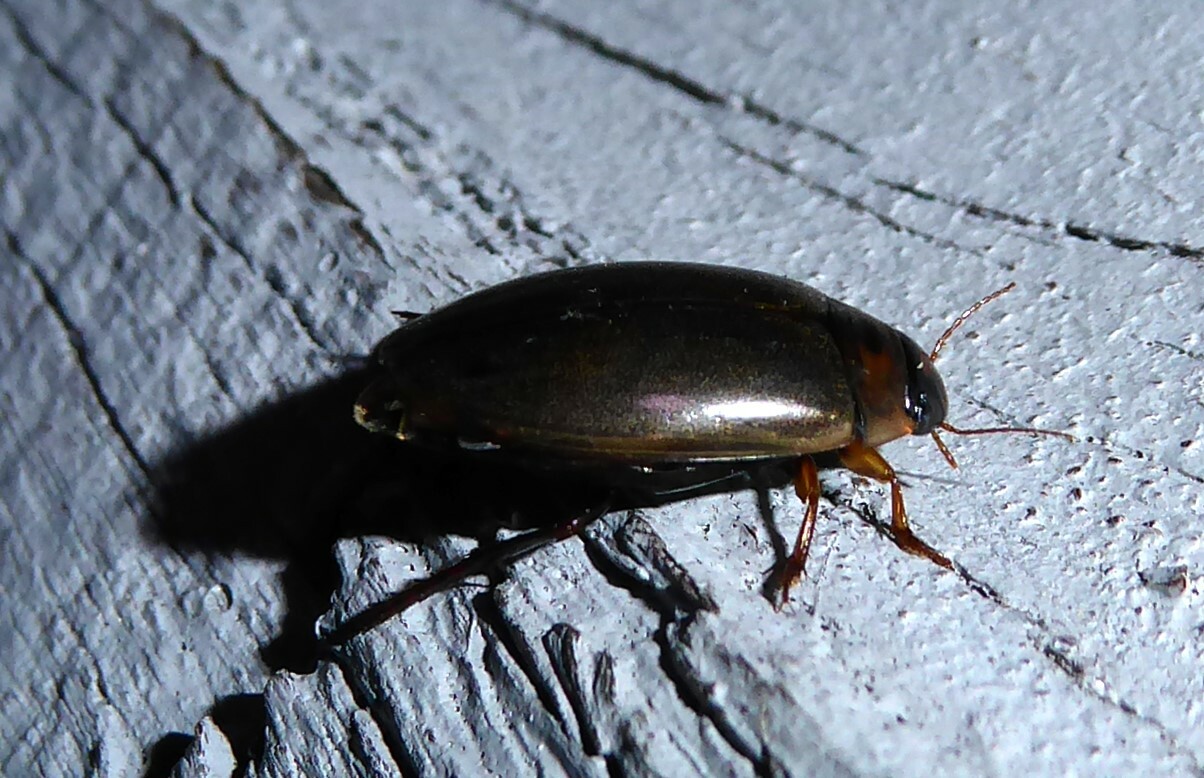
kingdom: Animalia
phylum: Arthropoda
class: Insecta
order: Coleoptera
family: Dytiscidae
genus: Rhantus
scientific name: Rhantus suturalis
